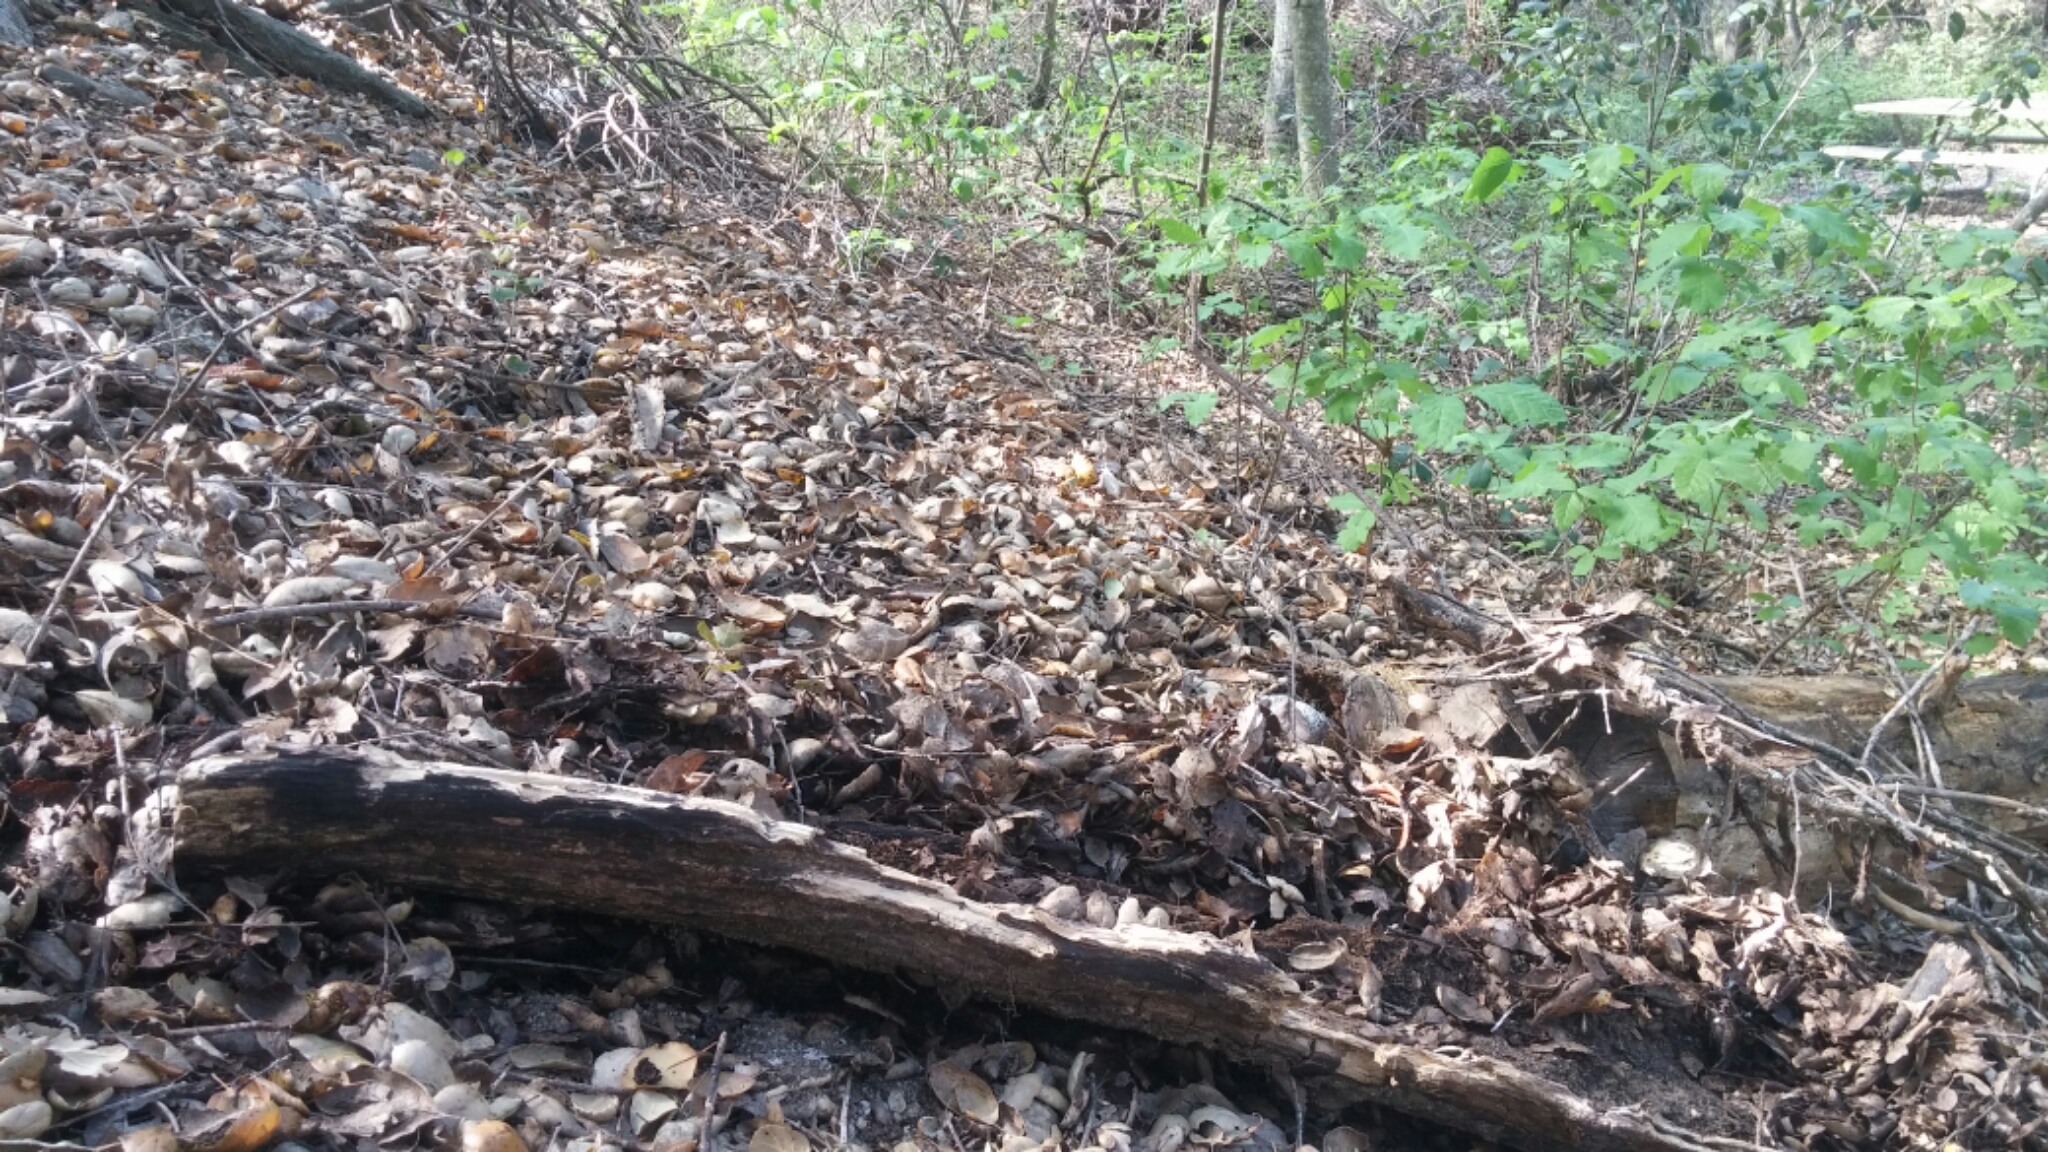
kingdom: Plantae
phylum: Tracheophyta
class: Magnoliopsida
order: Sapindales
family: Anacardiaceae
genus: Toxicodendron
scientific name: Toxicodendron diversilobum
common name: Pacific poison-oak
